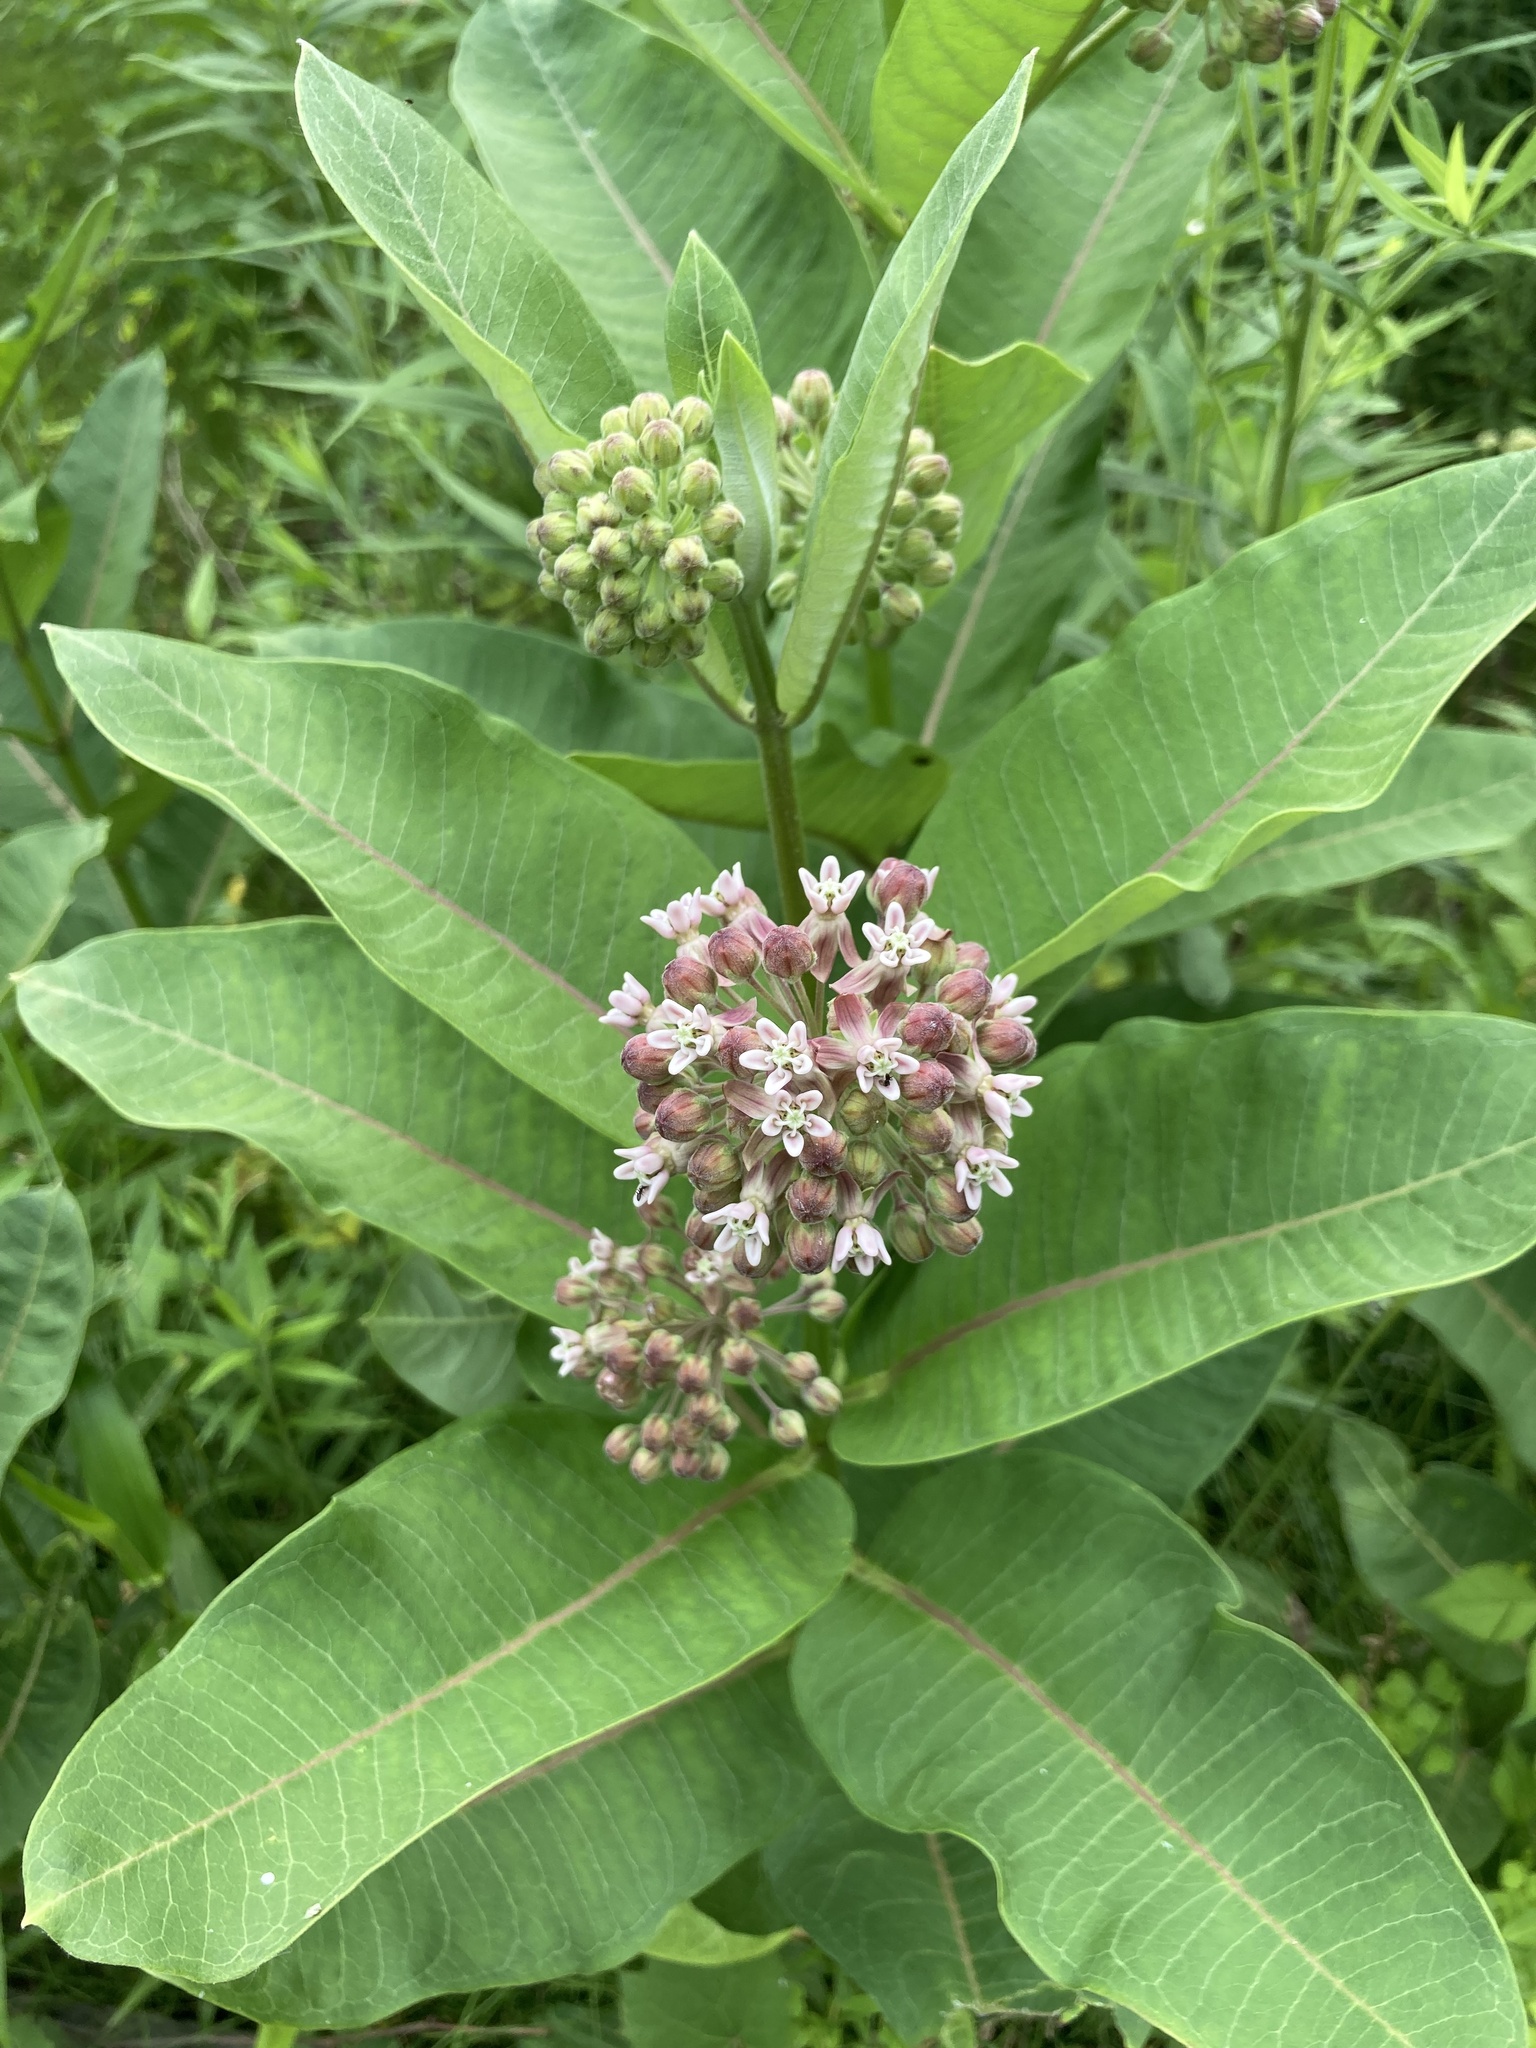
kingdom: Plantae
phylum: Tracheophyta
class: Magnoliopsida
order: Gentianales
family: Apocynaceae
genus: Asclepias
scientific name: Asclepias syriaca
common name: Common milkweed
